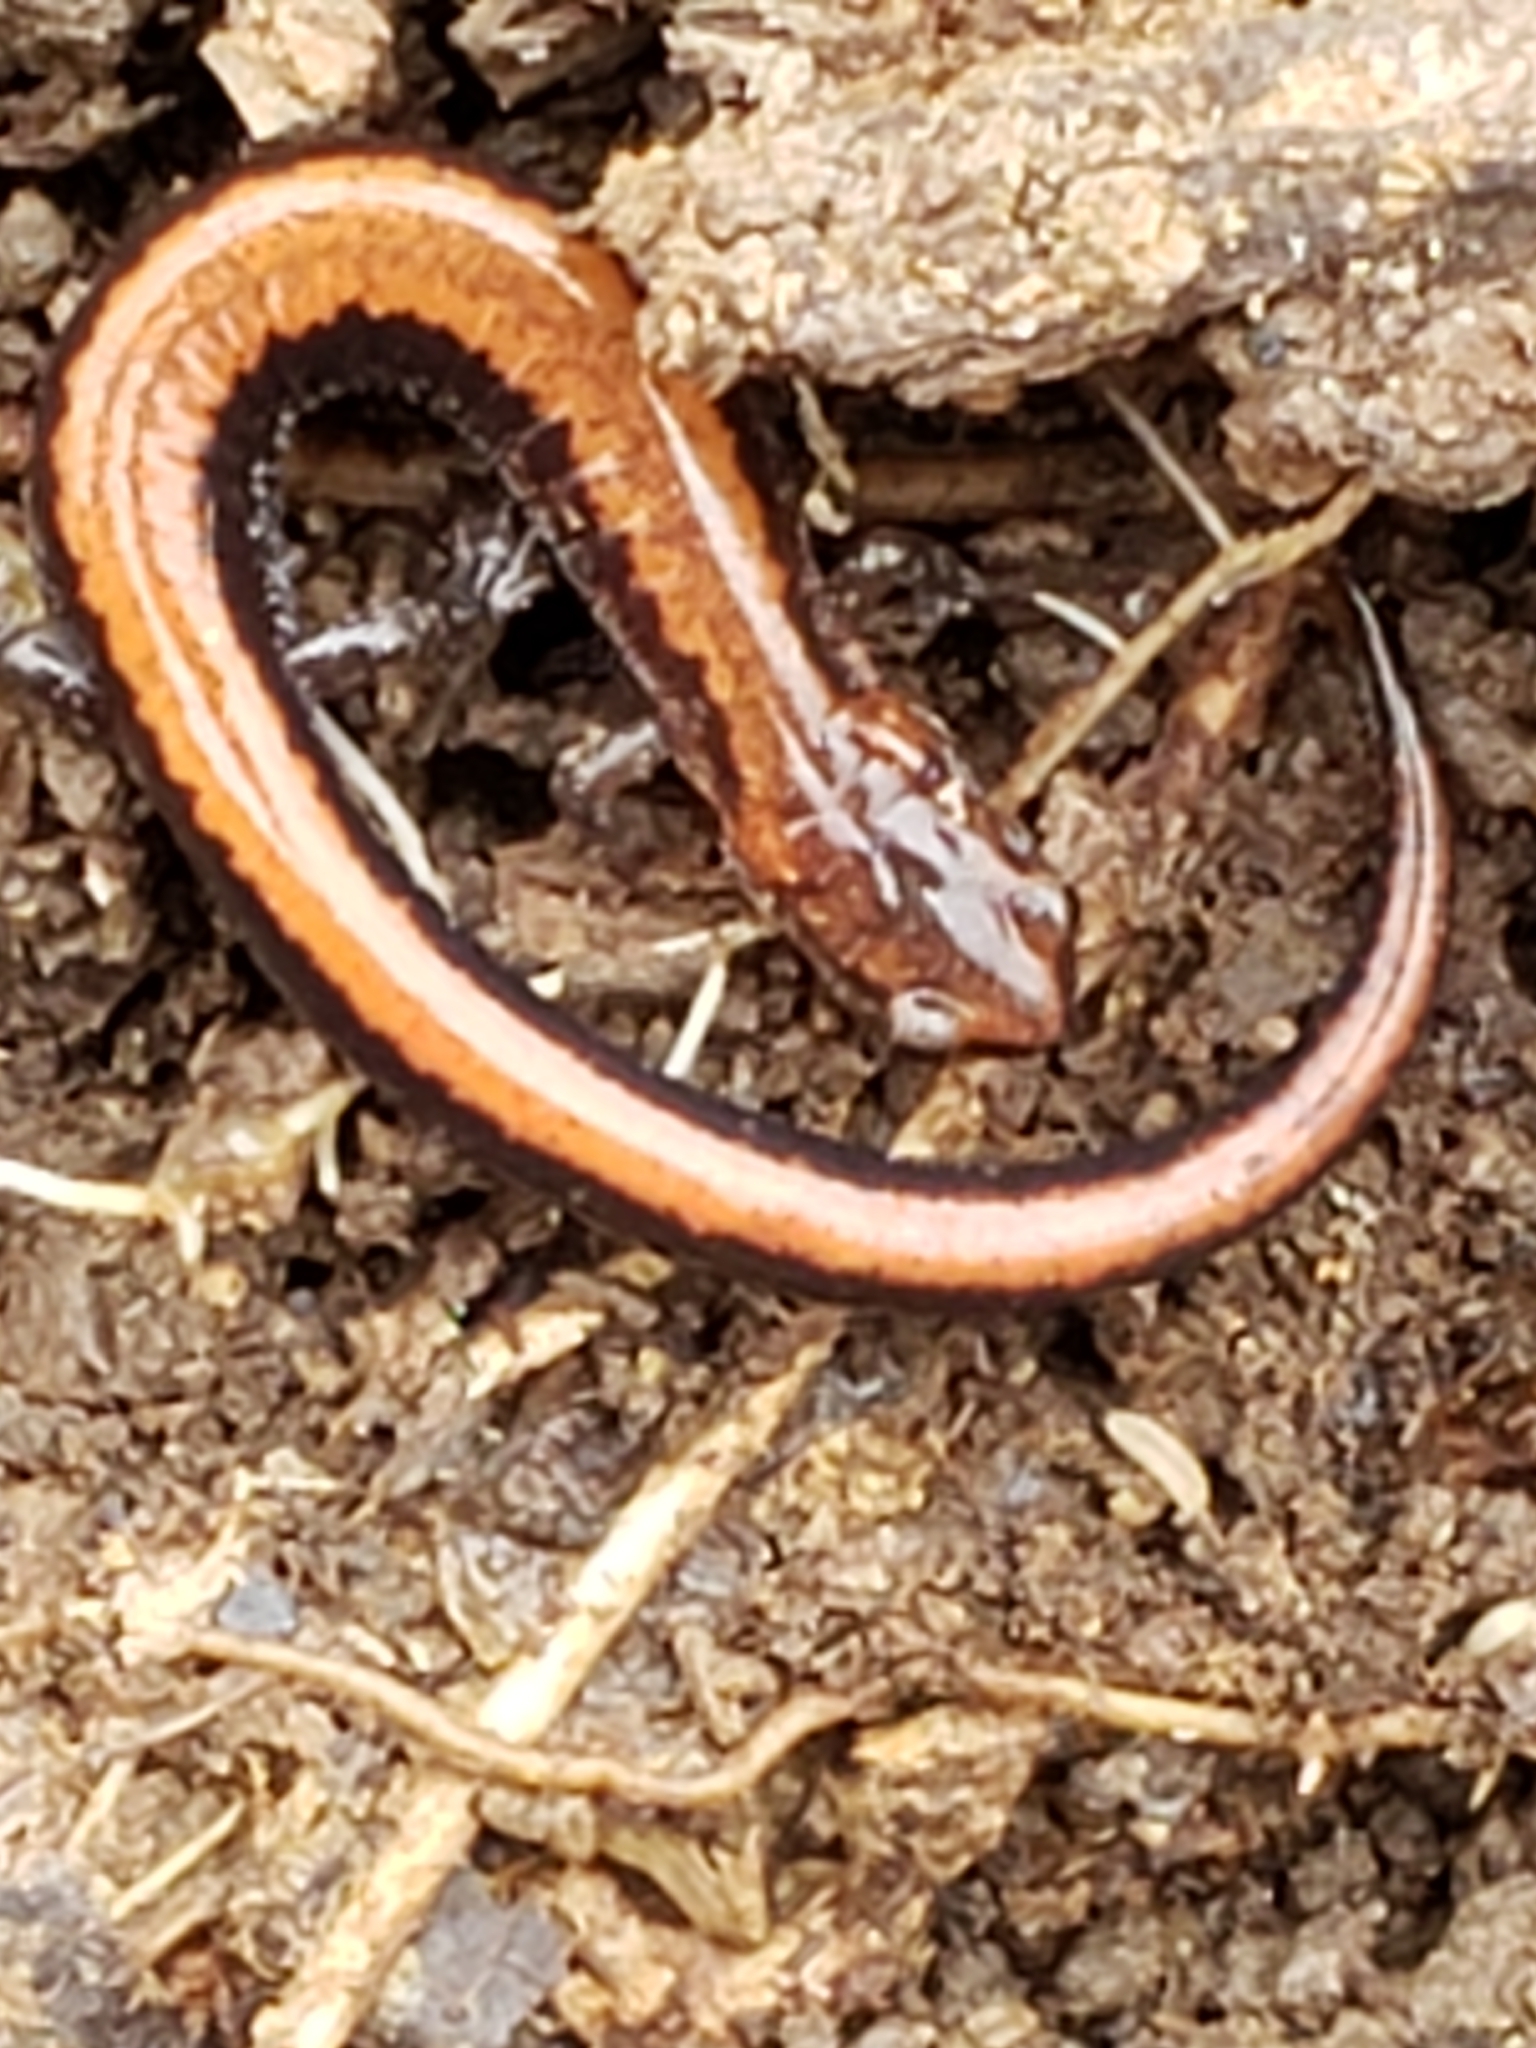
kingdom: Animalia
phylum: Chordata
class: Amphibia
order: Caudata
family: Plethodontidae
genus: Plethodon
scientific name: Plethodon cinereus
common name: Redback salamander
